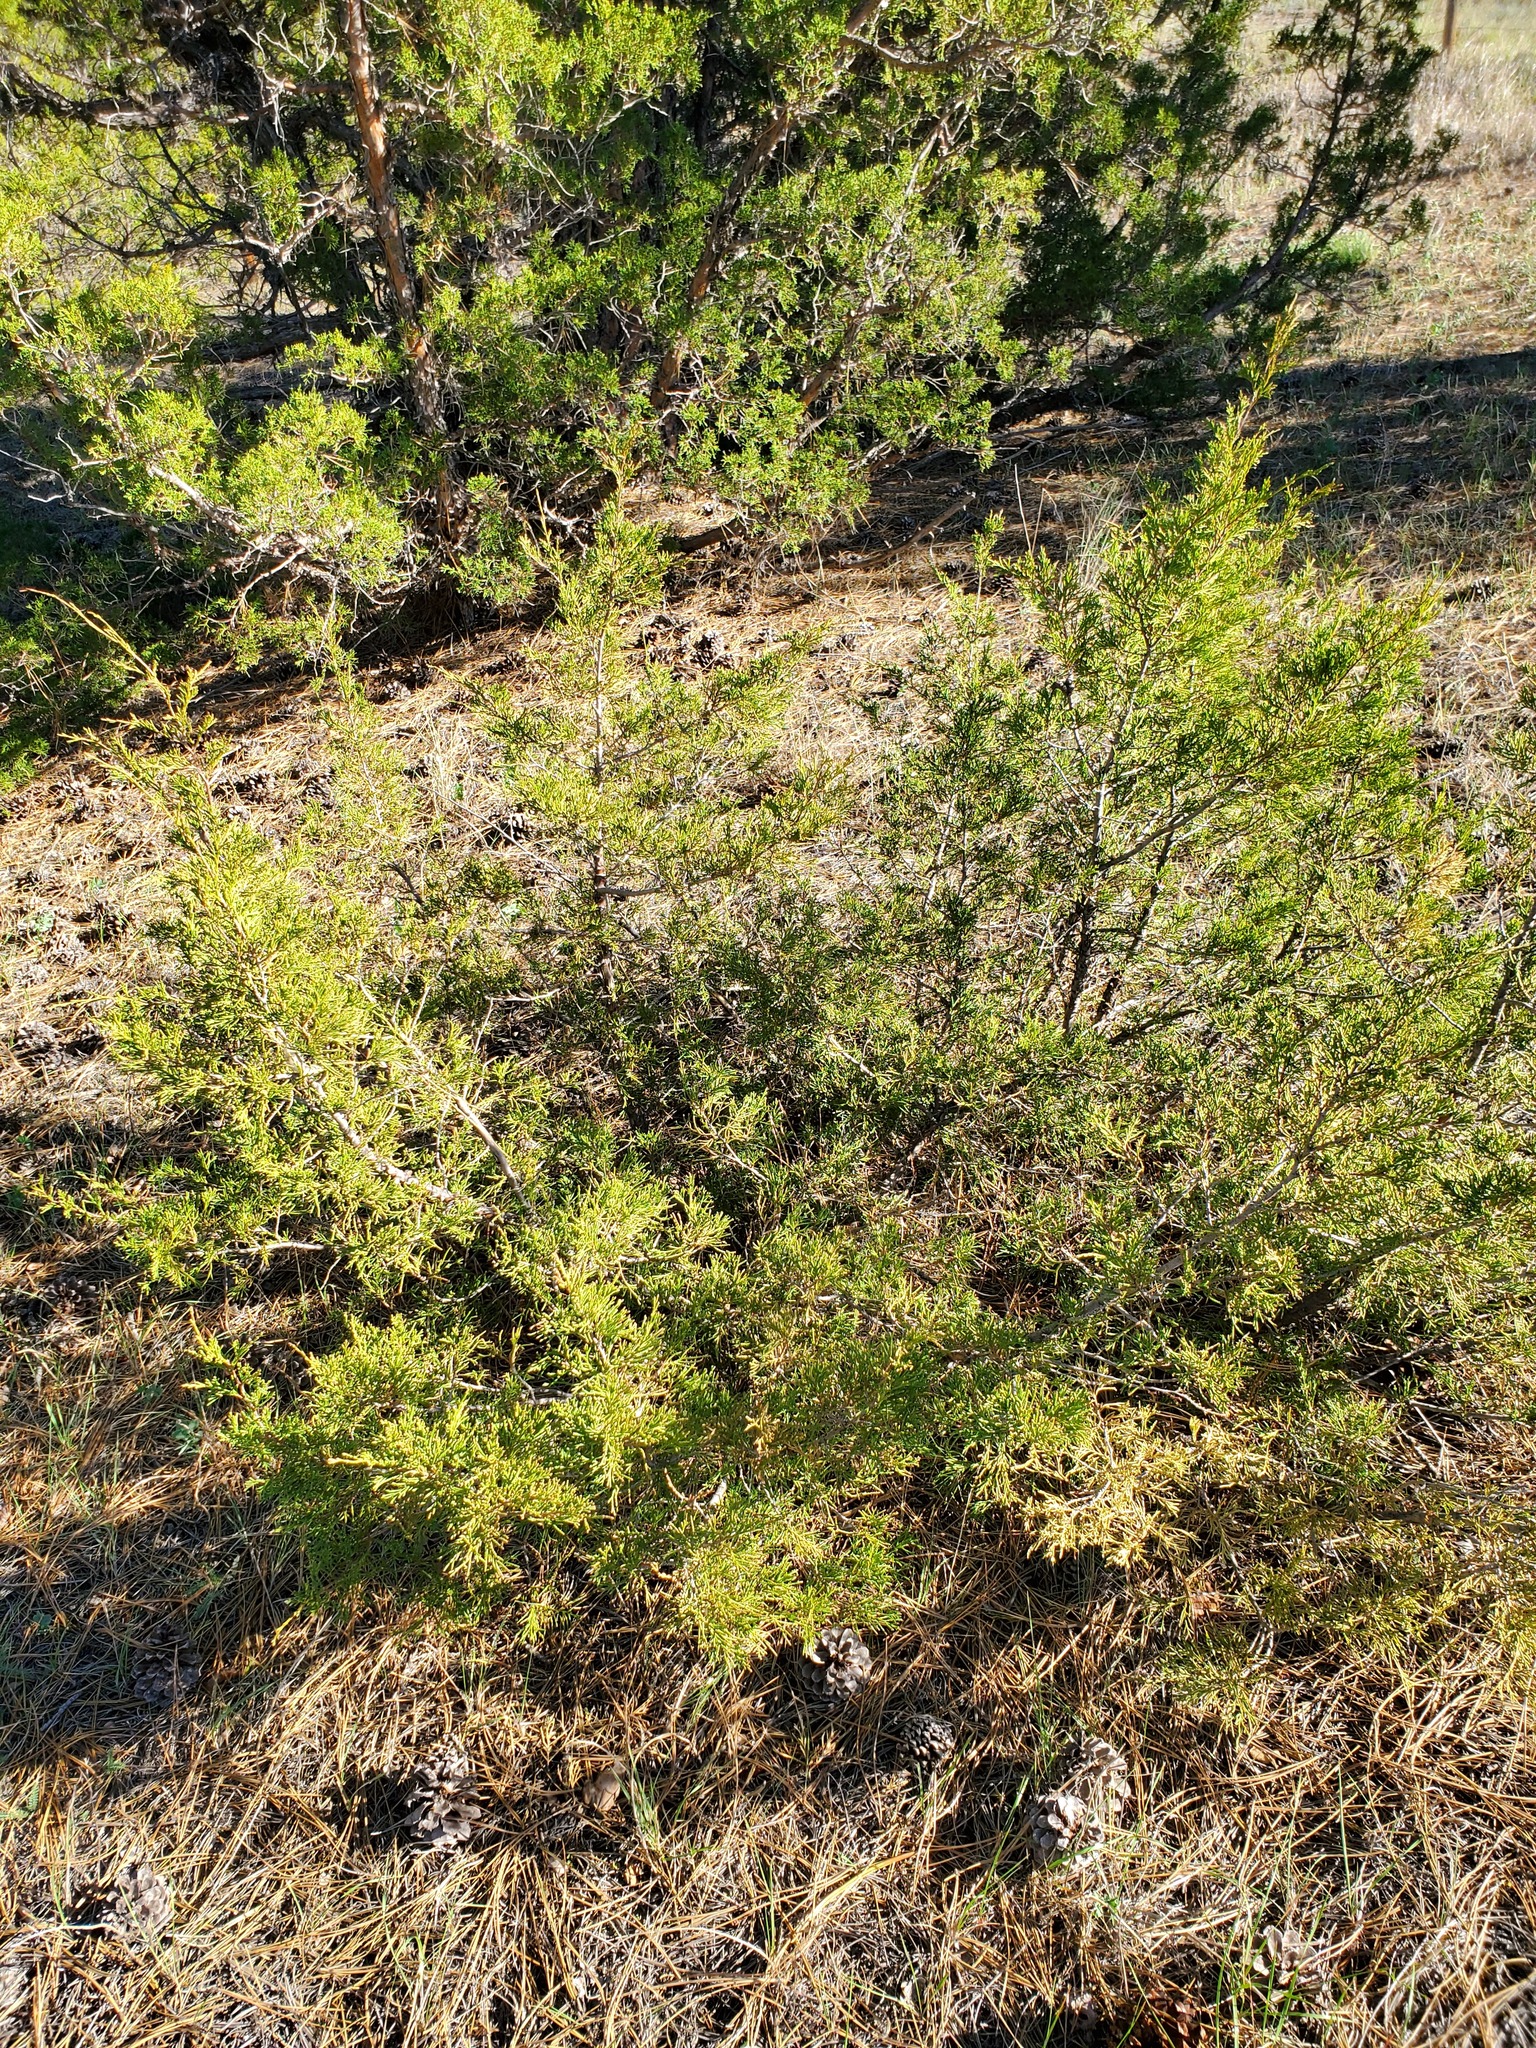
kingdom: Plantae
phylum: Tracheophyta
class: Pinopsida
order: Pinales
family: Cupressaceae
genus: Juniperus
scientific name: Juniperus scopulorum
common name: Rocky mountain juniper
